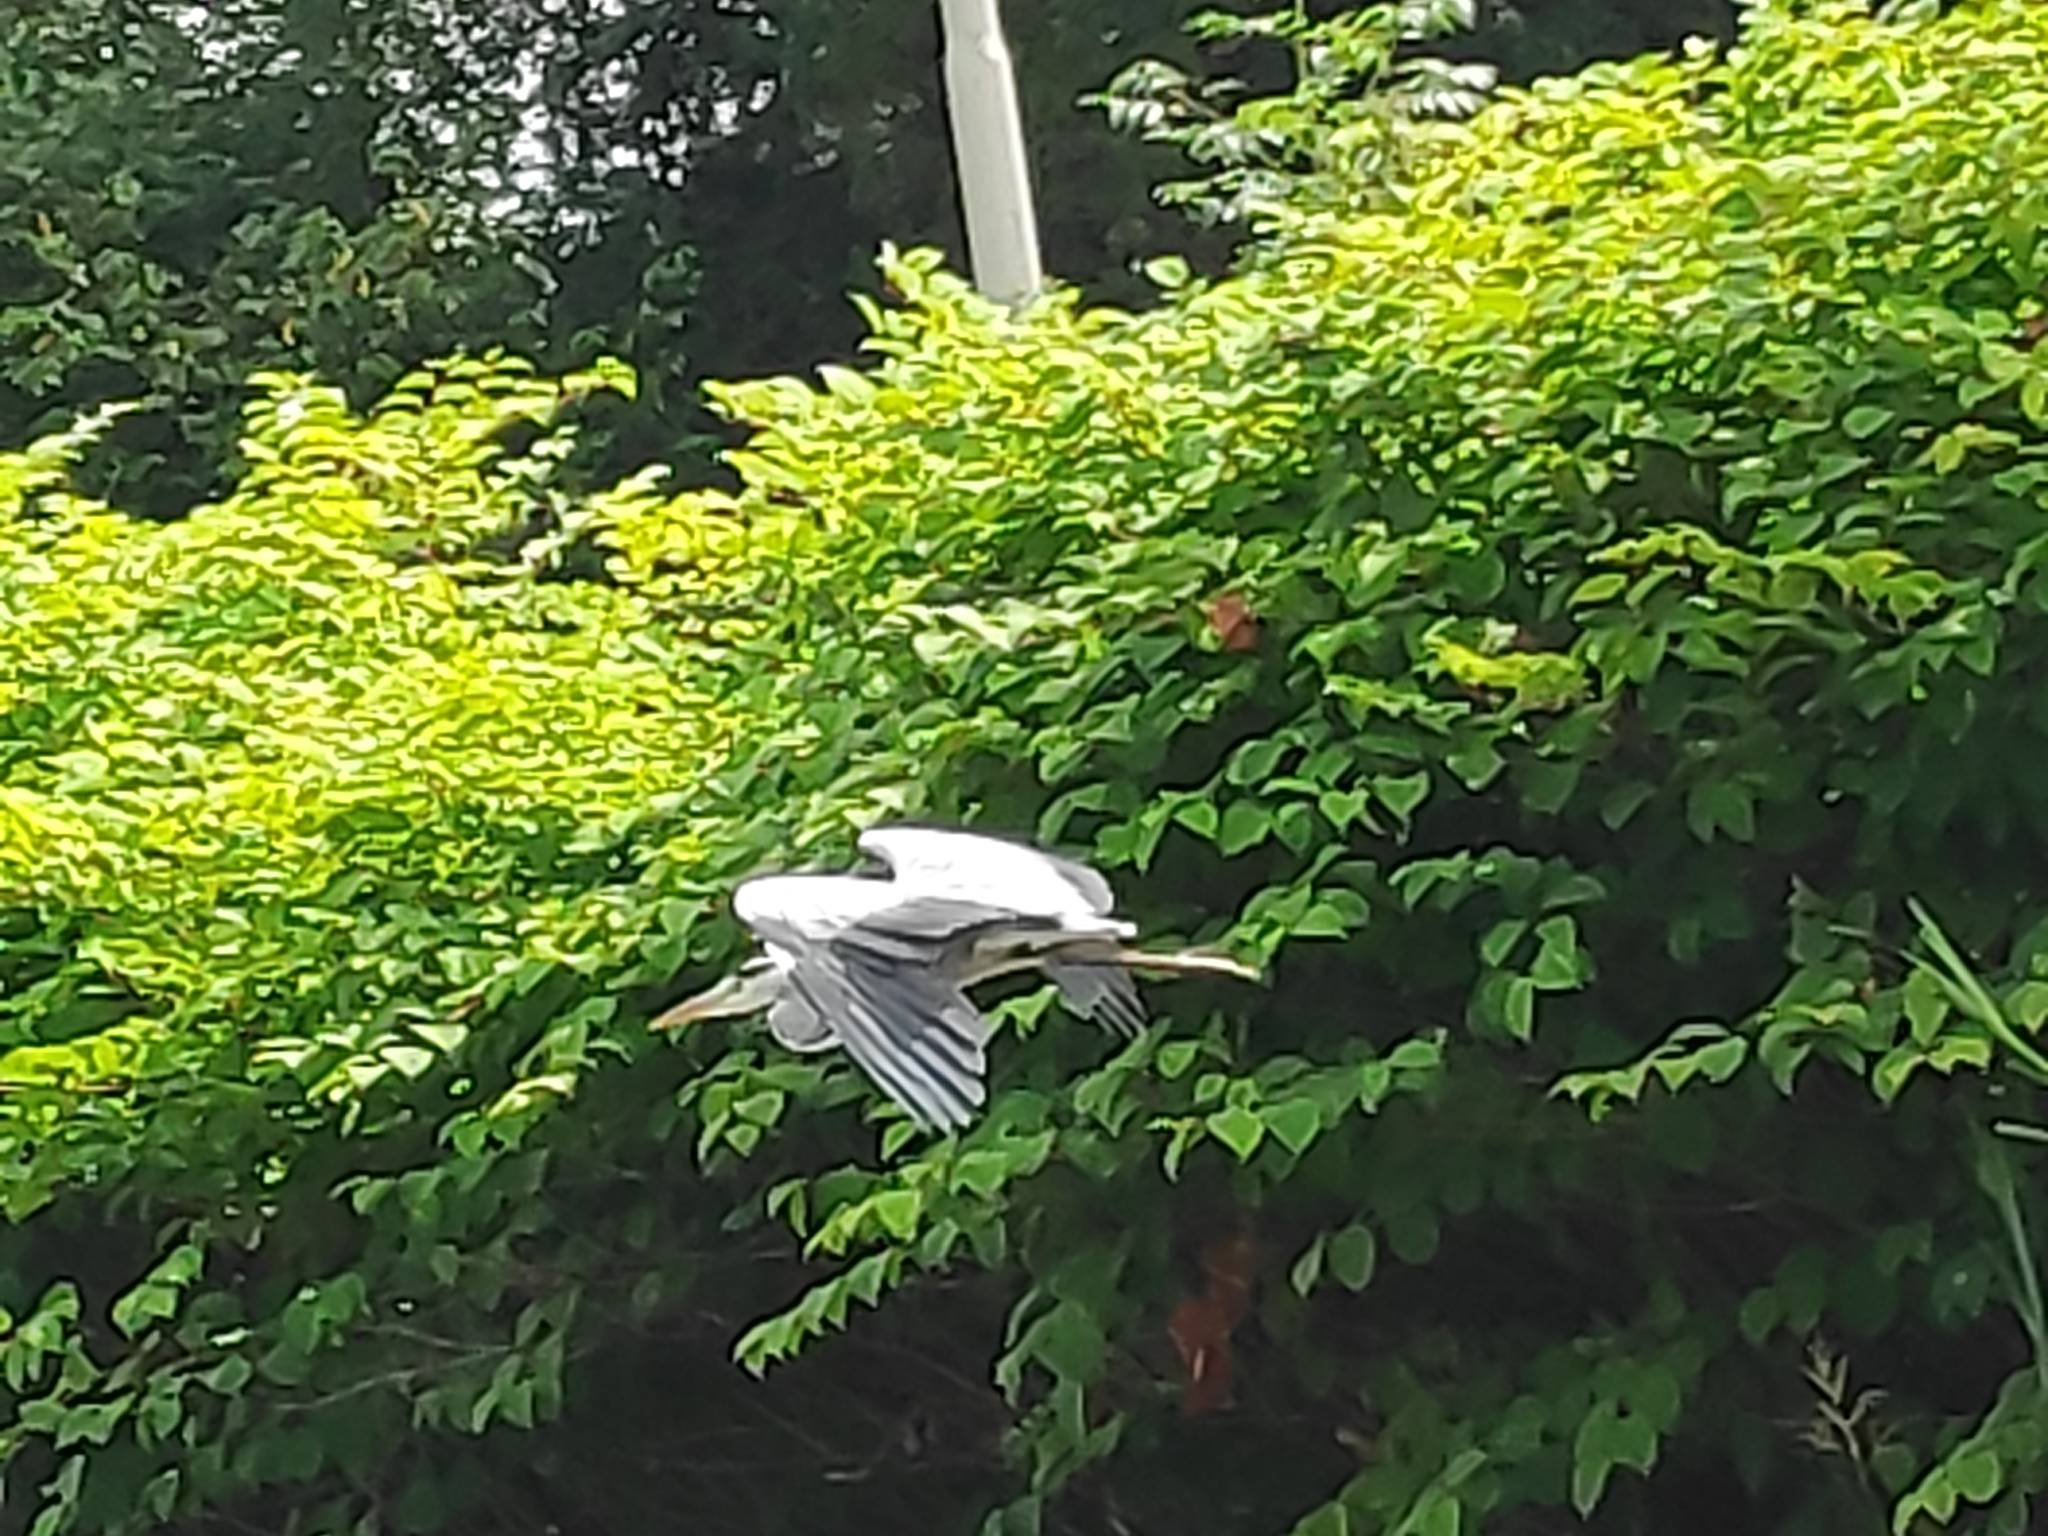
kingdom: Animalia
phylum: Chordata
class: Aves
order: Pelecaniformes
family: Ardeidae
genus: Ardea
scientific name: Ardea cinerea
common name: Grey heron
